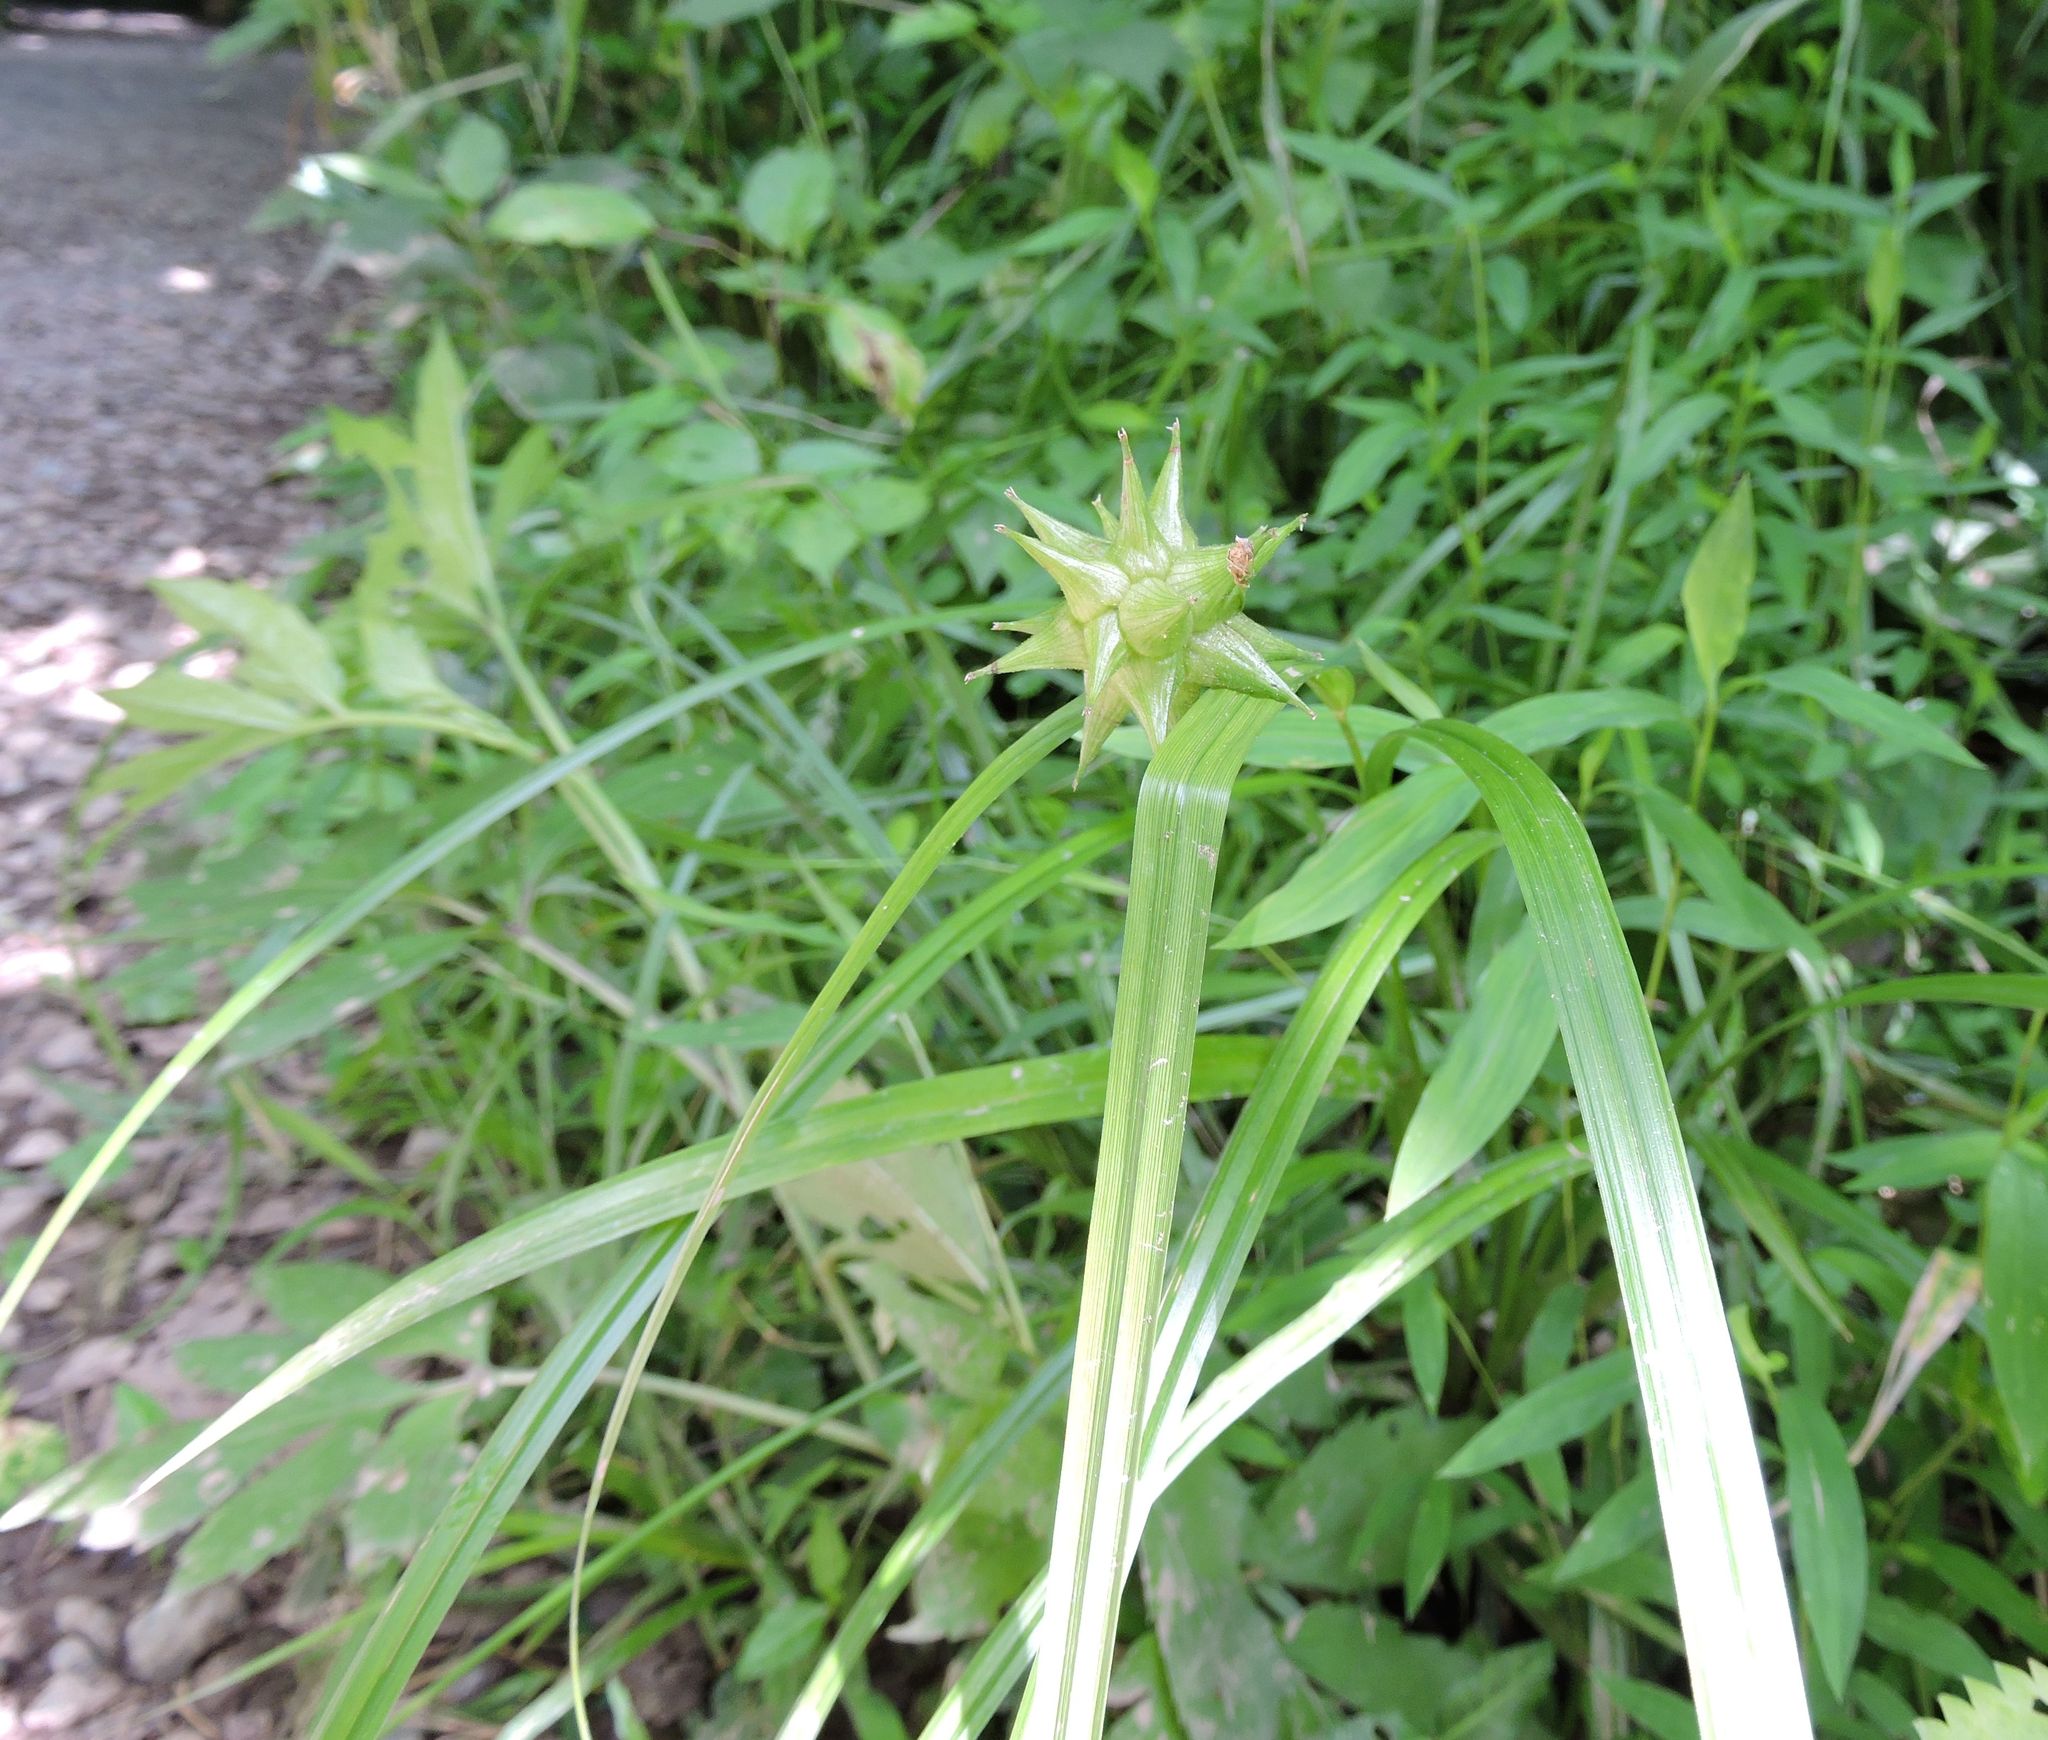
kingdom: Plantae
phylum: Tracheophyta
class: Liliopsida
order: Poales
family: Cyperaceae
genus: Carex
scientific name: Carex grayi
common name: Asa gray's sedge
